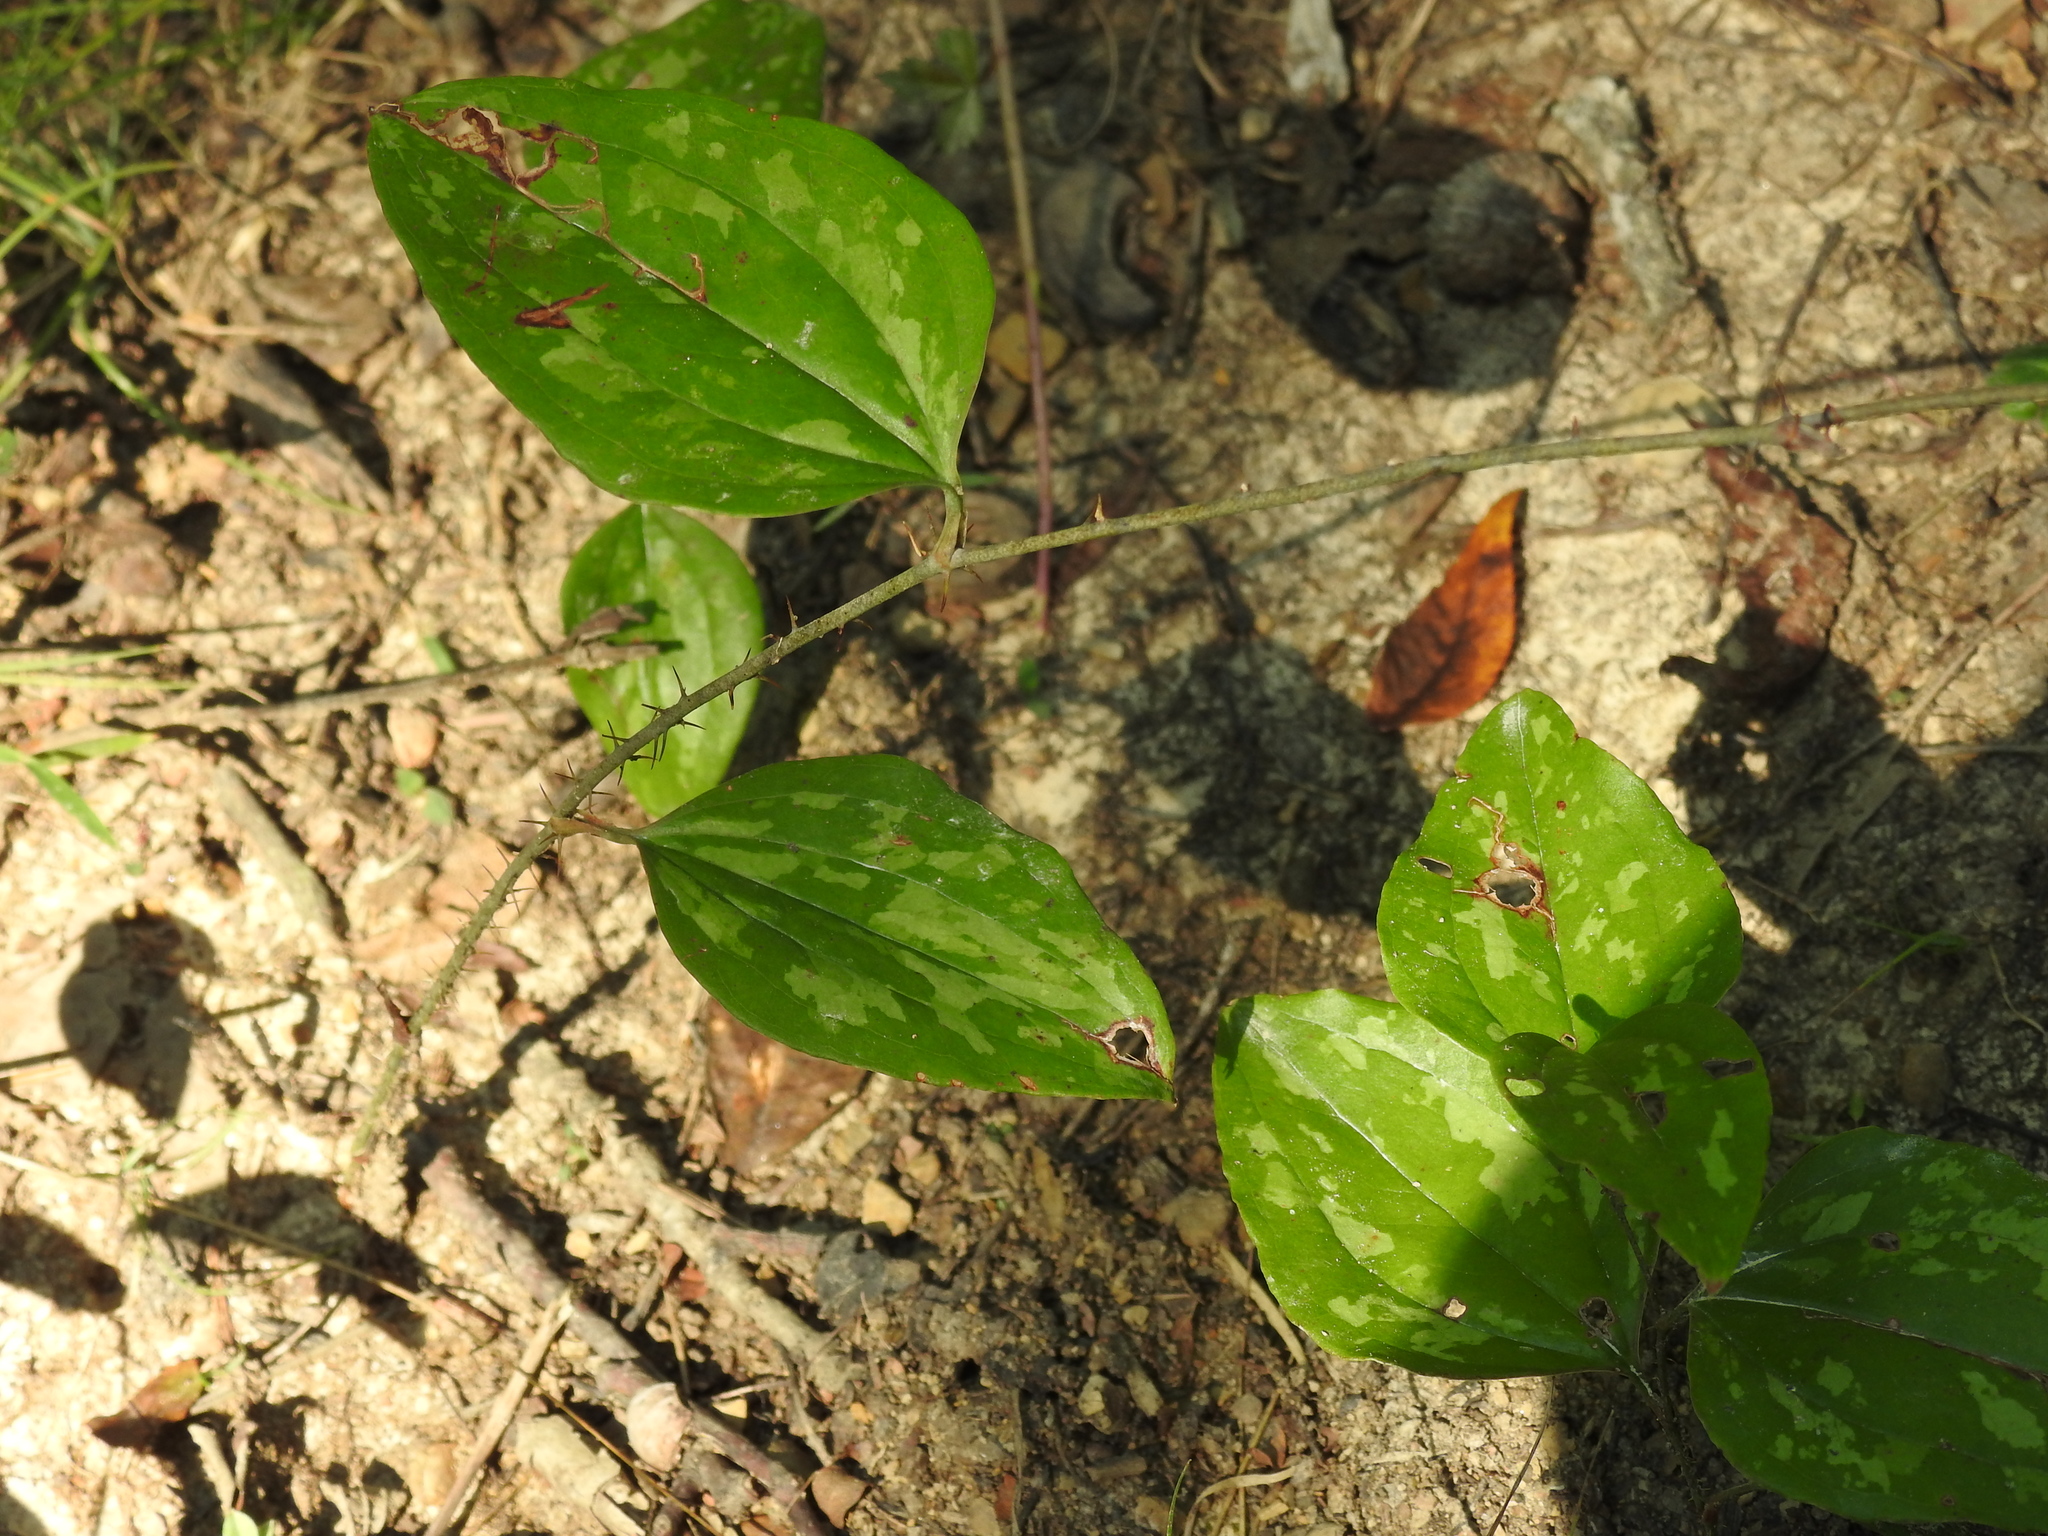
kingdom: Plantae
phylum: Tracheophyta
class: Liliopsida
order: Liliales
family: Smilacaceae
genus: Smilax
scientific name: Smilax glauca
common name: Cat greenbrier
